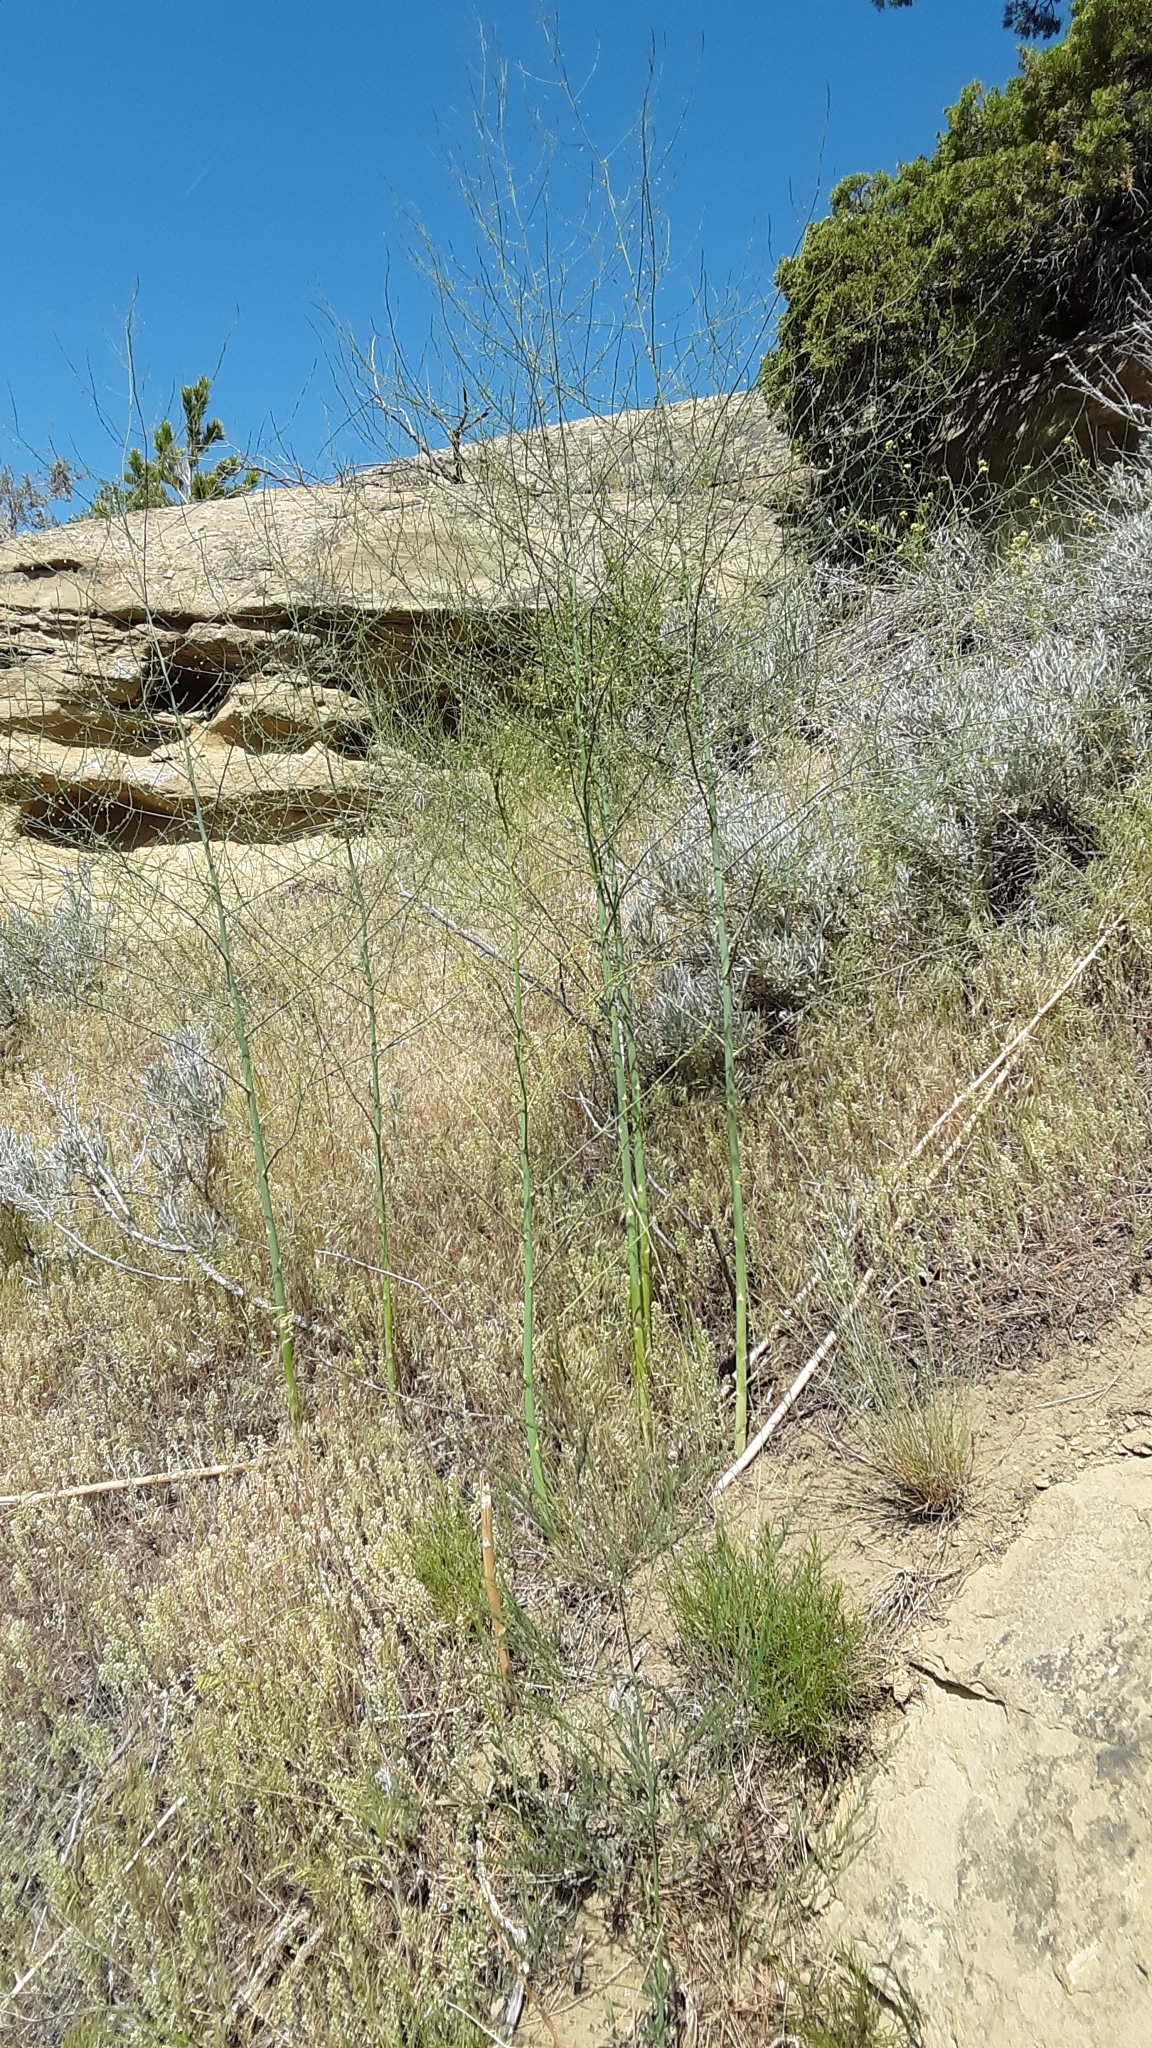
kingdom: Plantae
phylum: Tracheophyta
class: Liliopsida
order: Asparagales
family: Asparagaceae
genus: Asparagus
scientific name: Asparagus officinalis
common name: Garden asparagus
